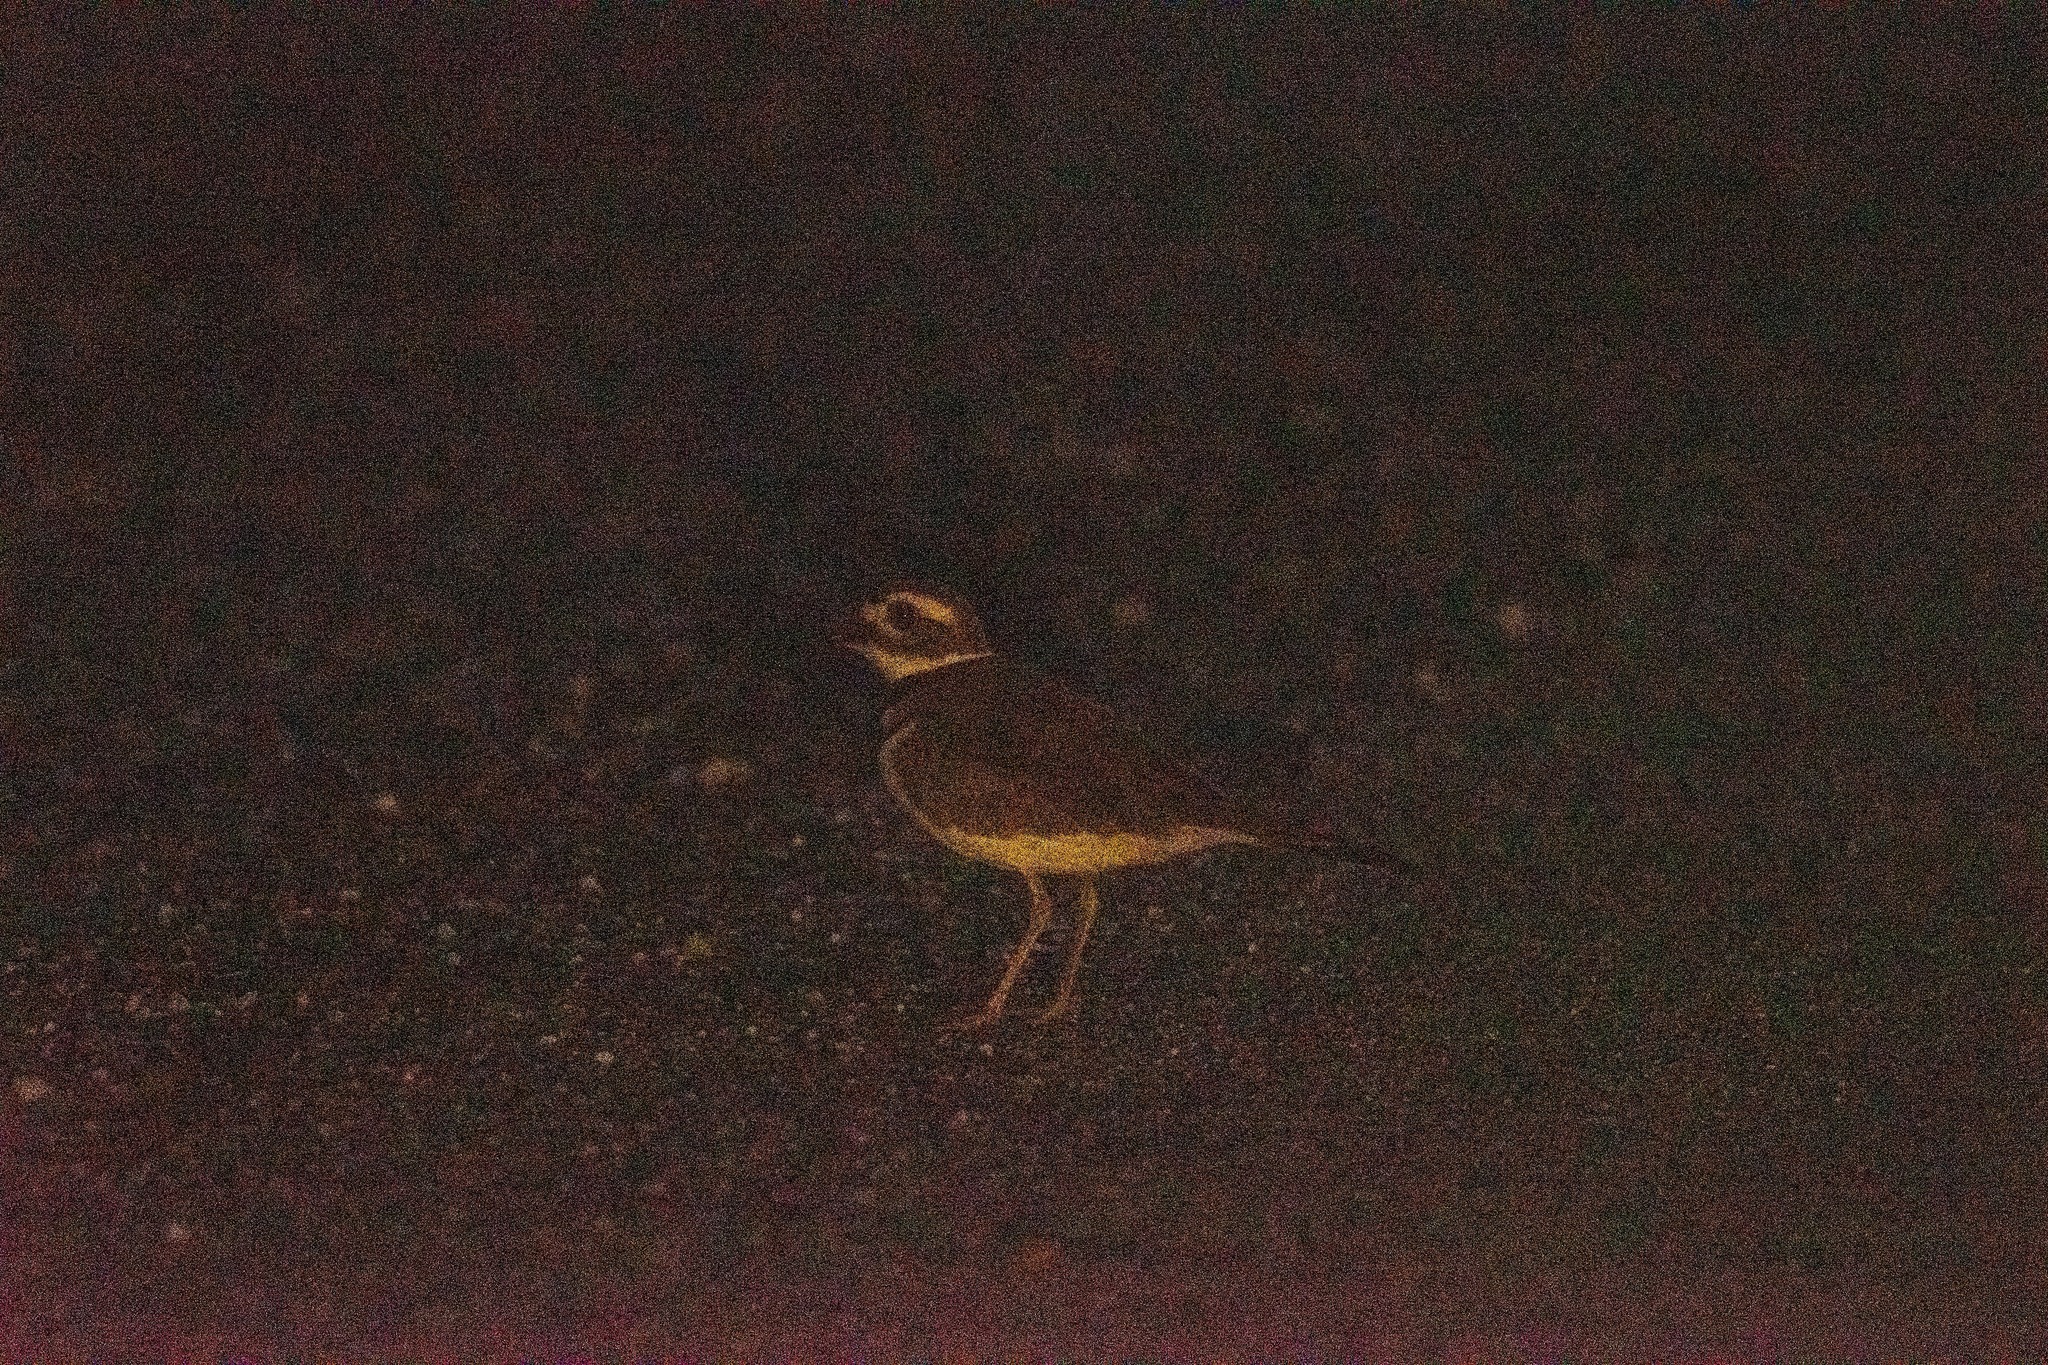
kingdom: Animalia
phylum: Chordata
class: Aves
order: Charadriiformes
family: Charadriidae
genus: Charadrius
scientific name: Charadrius vociferus
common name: Killdeer
